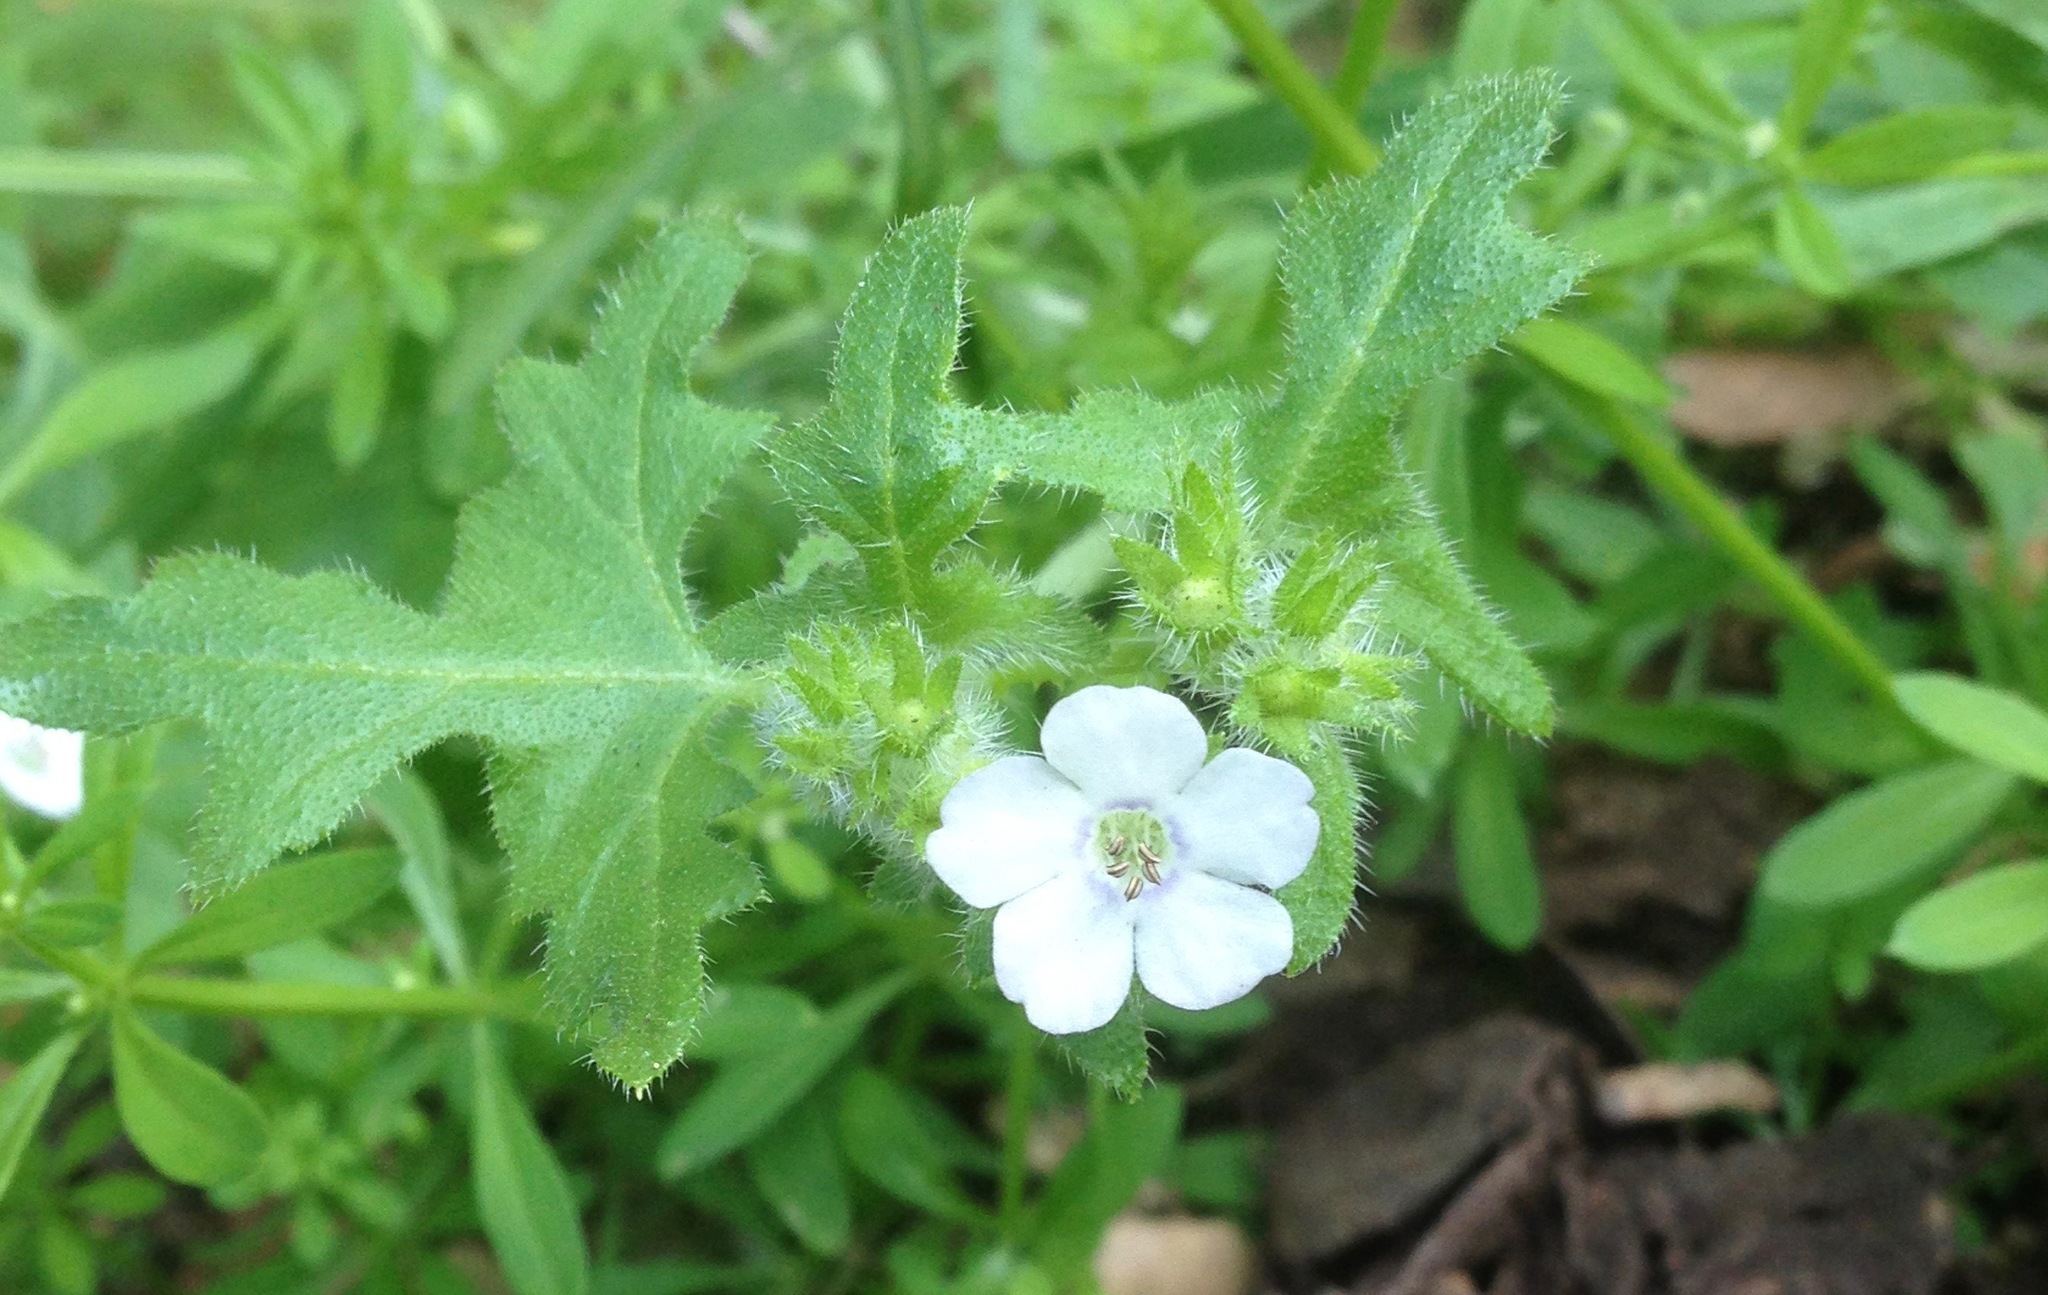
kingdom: Plantae
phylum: Tracheophyta
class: Magnoliopsida
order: Boraginales
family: Hydrophyllaceae
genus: Pholistoma
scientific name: Pholistoma auritum
